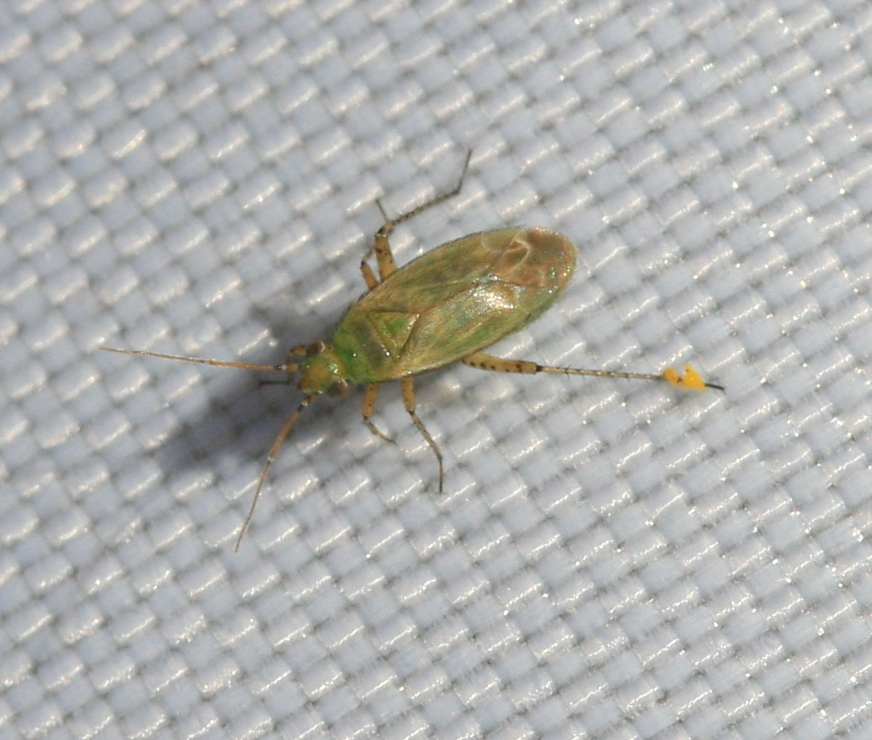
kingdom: Animalia
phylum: Arthropoda
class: Insecta
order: Hemiptera
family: Miridae
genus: Plagiognathus
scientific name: Plagiognathus chrysanthemi
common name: Plant bug
